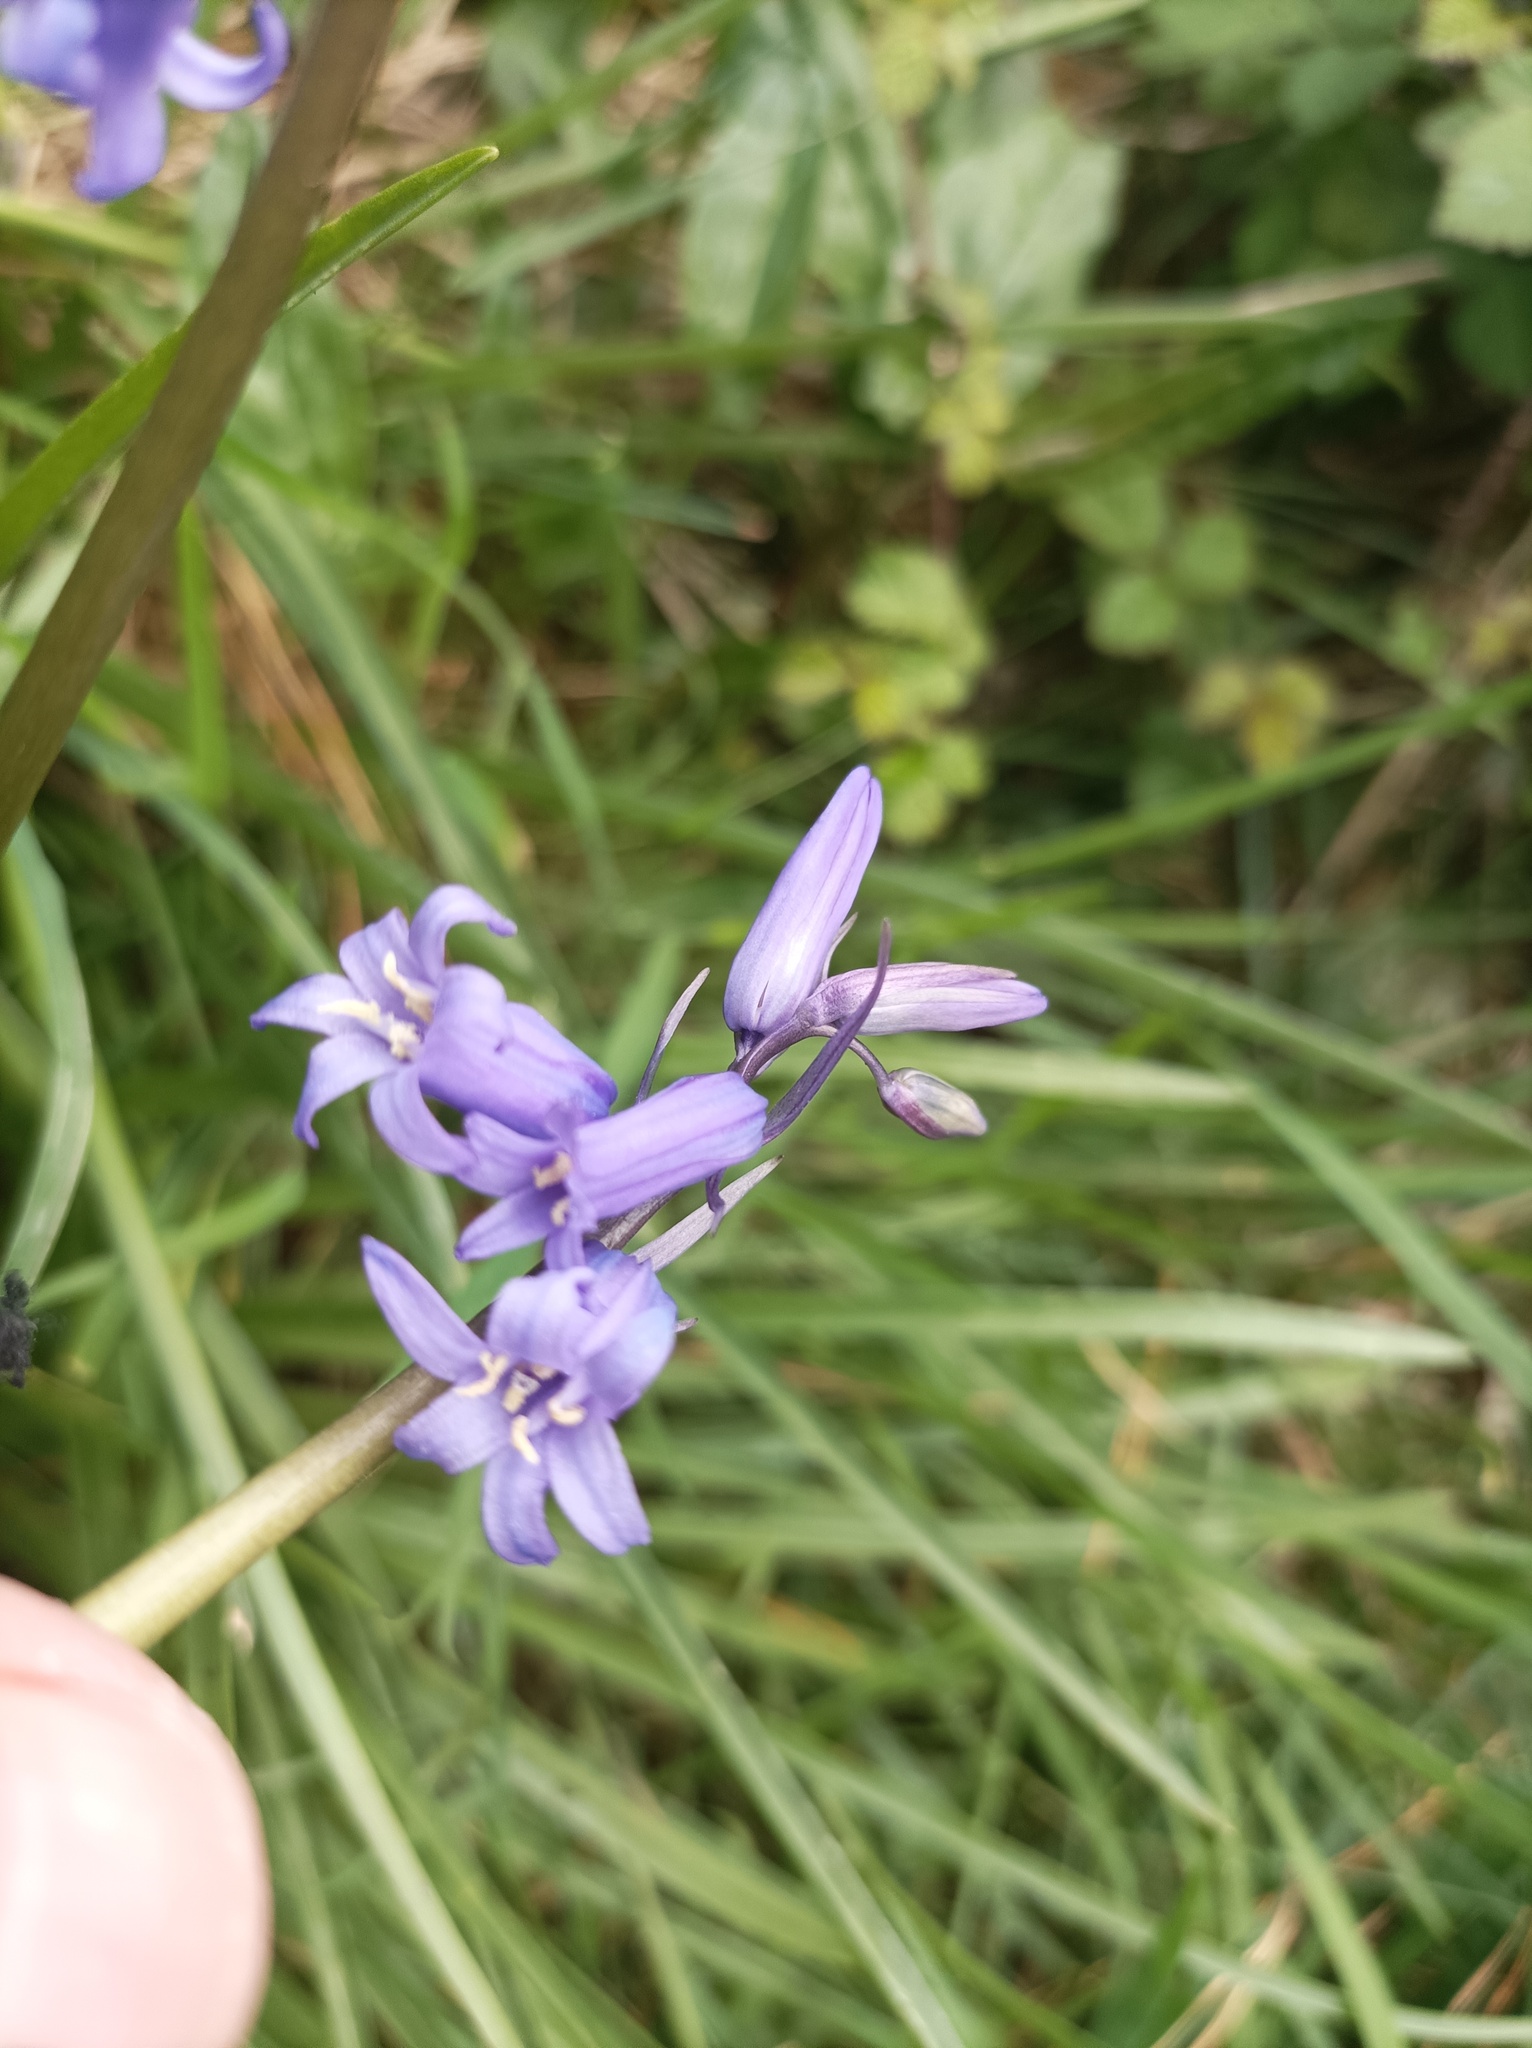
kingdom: Plantae
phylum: Tracheophyta
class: Liliopsida
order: Asparagales
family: Asparagaceae
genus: Hyacinthoides
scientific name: Hyacinthoides non-scripta
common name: Bluebell
